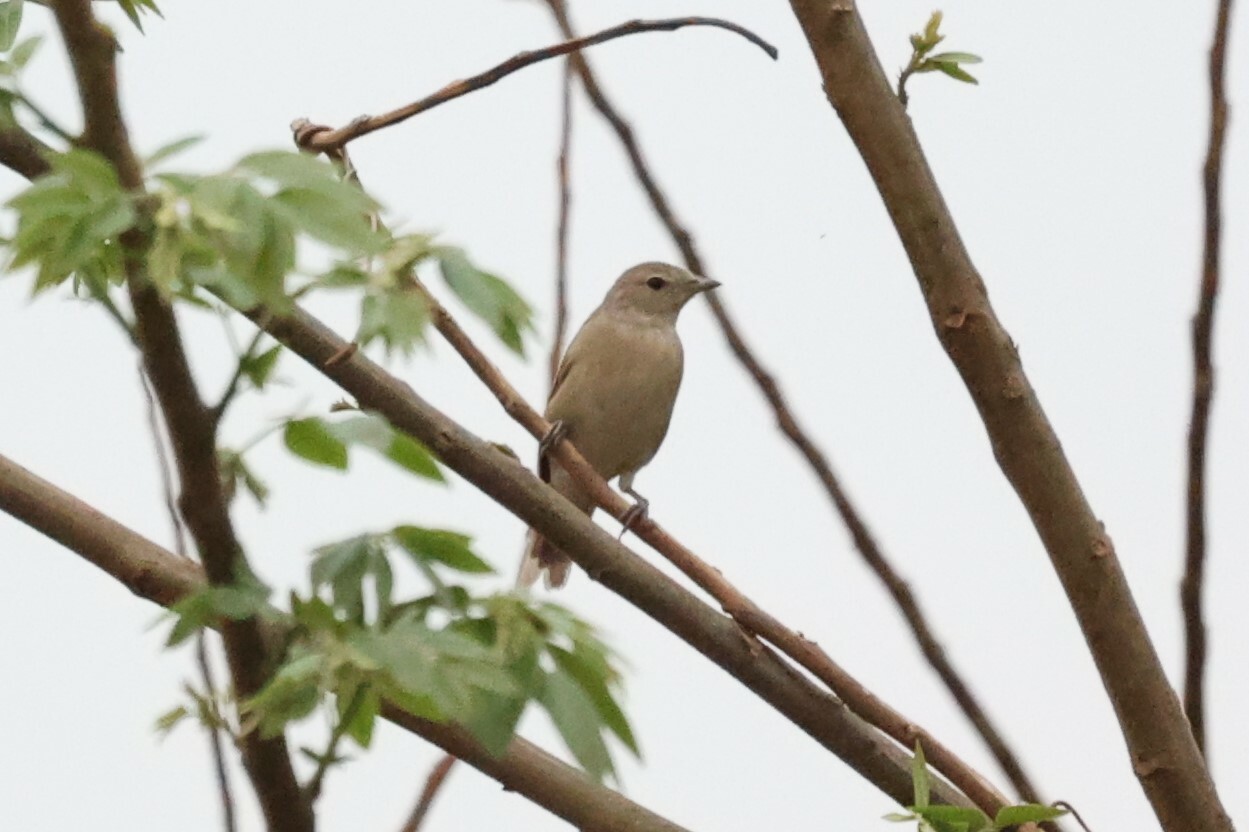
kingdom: Animalia
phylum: Chordata
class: Aves
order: Passeriformes
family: Sylviidae
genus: Sylvia
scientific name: Sylvia borin
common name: Garden warbler
